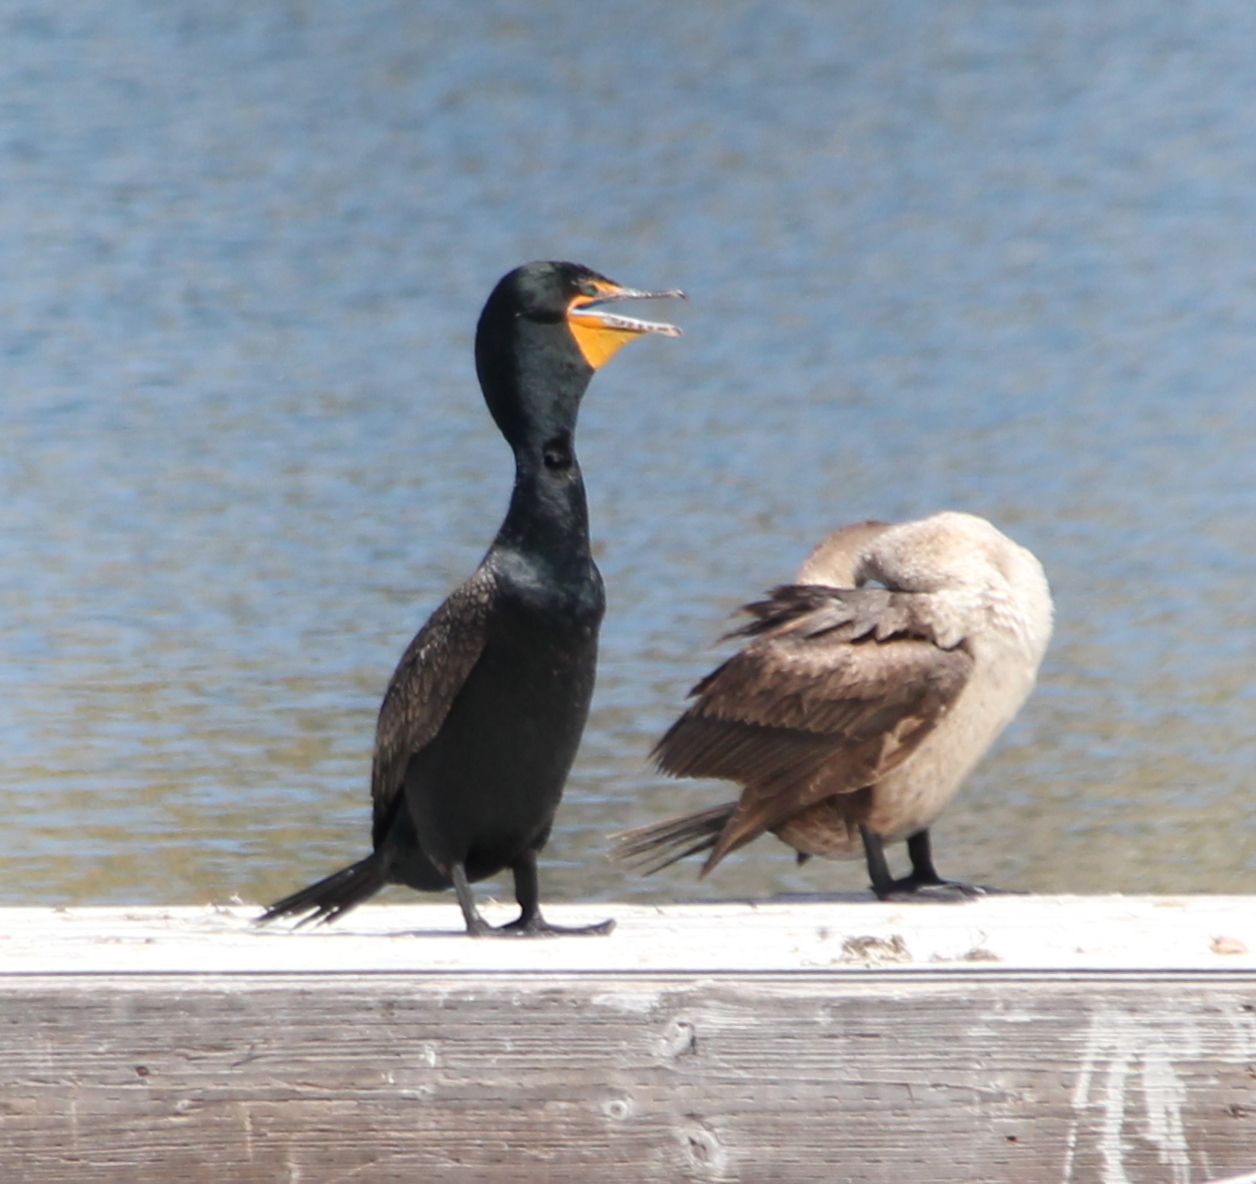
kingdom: Animalia
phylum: Chordata
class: Aves
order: Suliformes
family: Phalacrocoracidae
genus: Phalacrocorax
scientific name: Phalacrocorax auritus
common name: Double-crested cormorant
